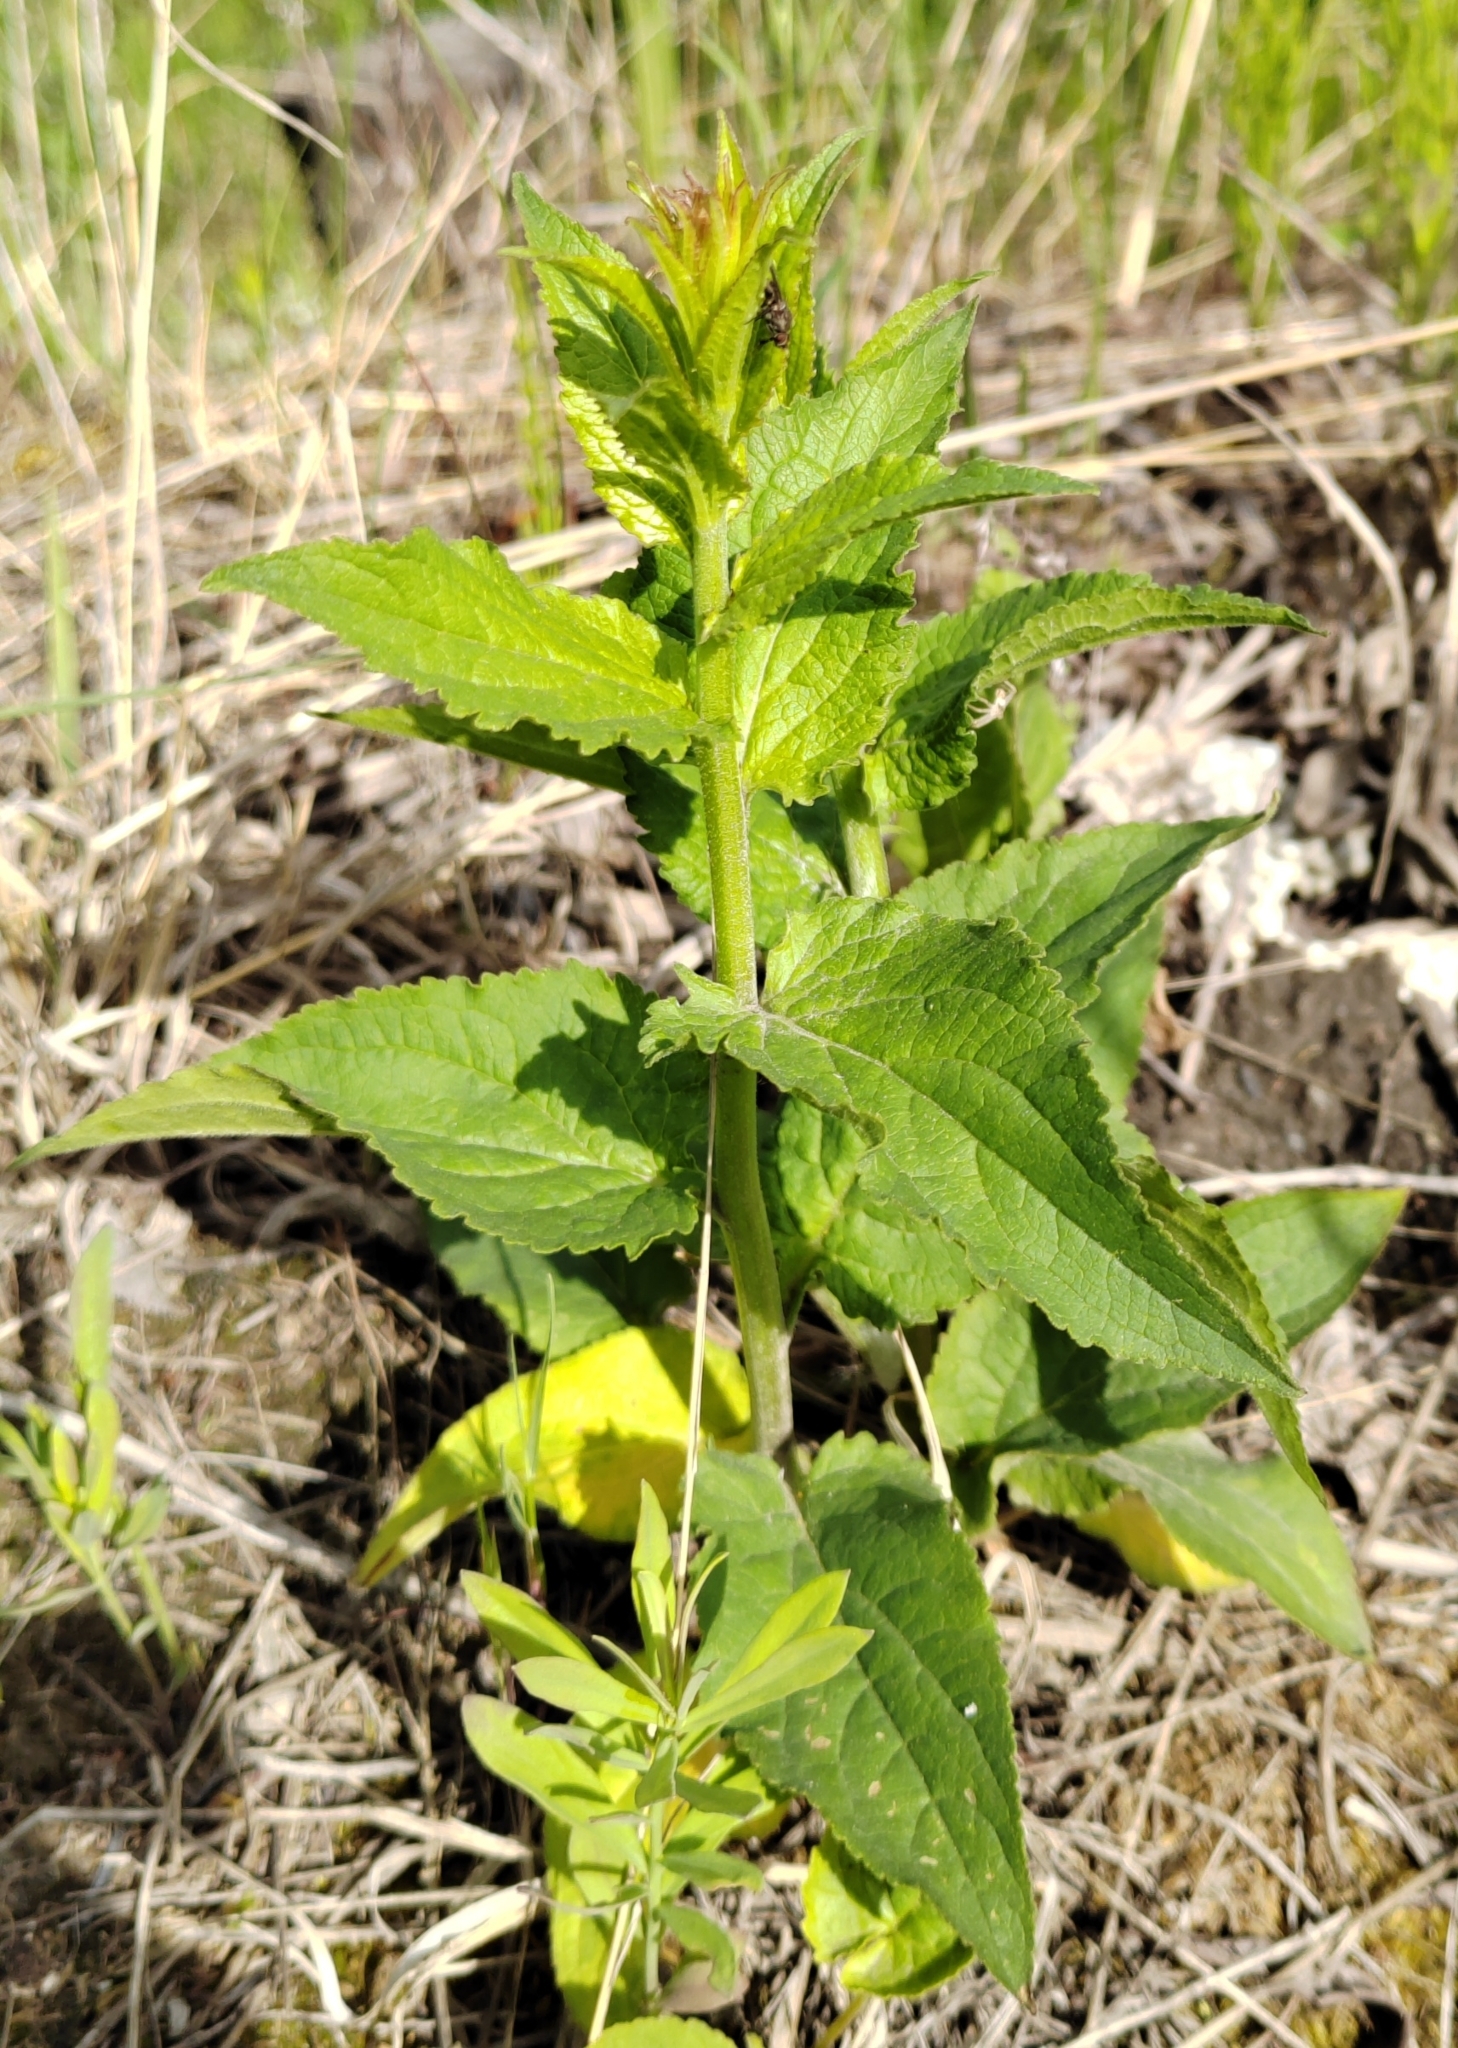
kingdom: Plantae
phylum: Tracheophyta
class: Magnoliopsida
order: Asterales
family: Campanulaceae
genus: Campanula
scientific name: Campanula rapunculoides
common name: Creeping bellflower
